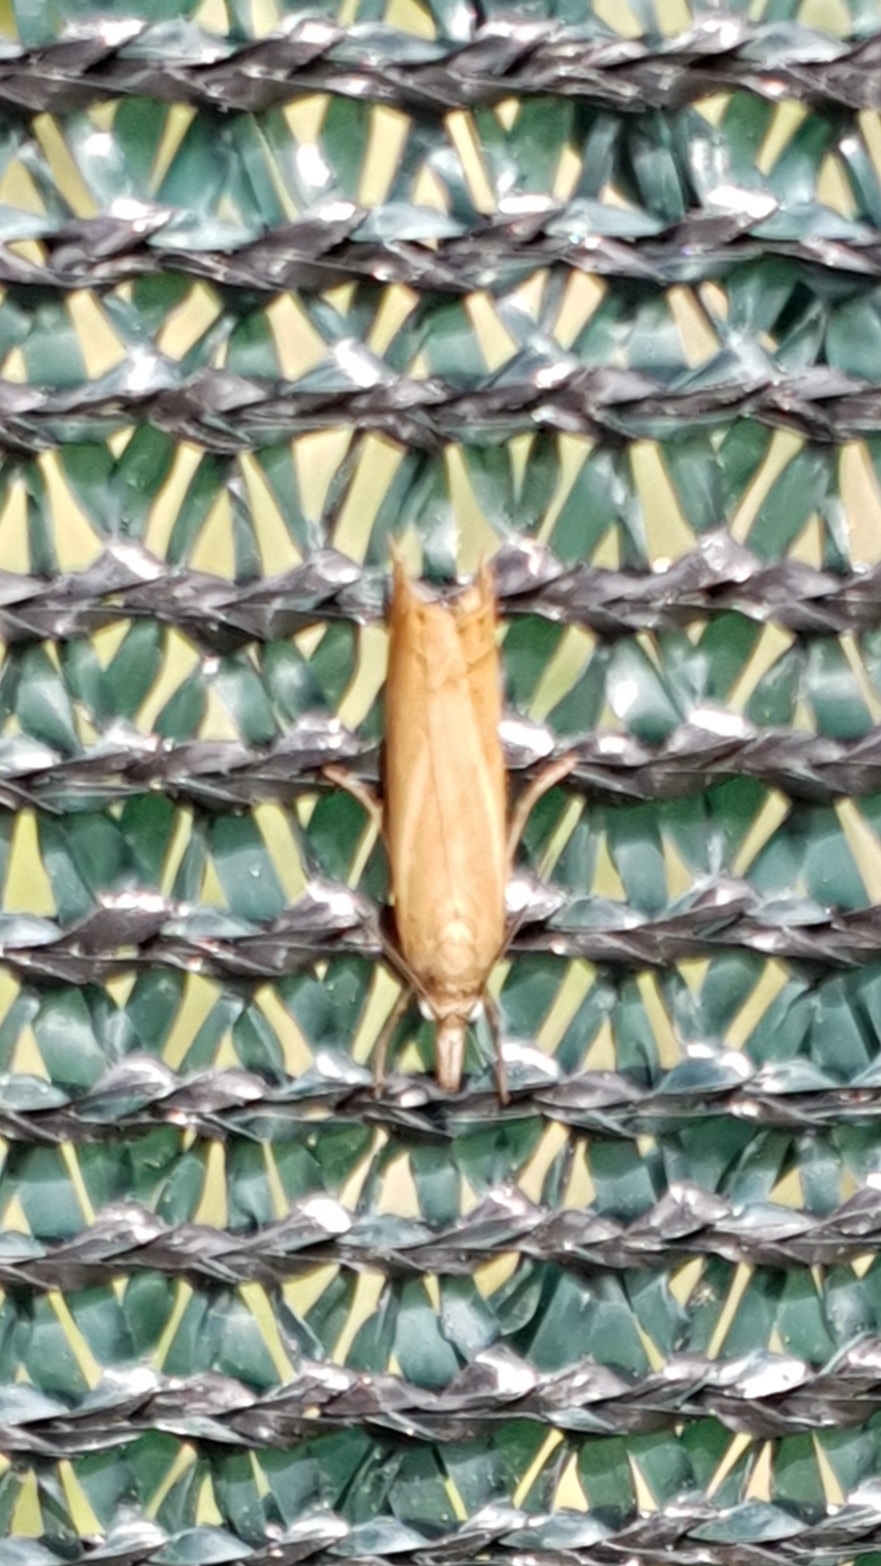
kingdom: Animalia
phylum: Arthropoda
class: Insecta
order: Lepidoptera
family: Crambidae
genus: Chrysoteuchia
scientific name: Chrysoteuchia culmella
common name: Garden grass-veneer
